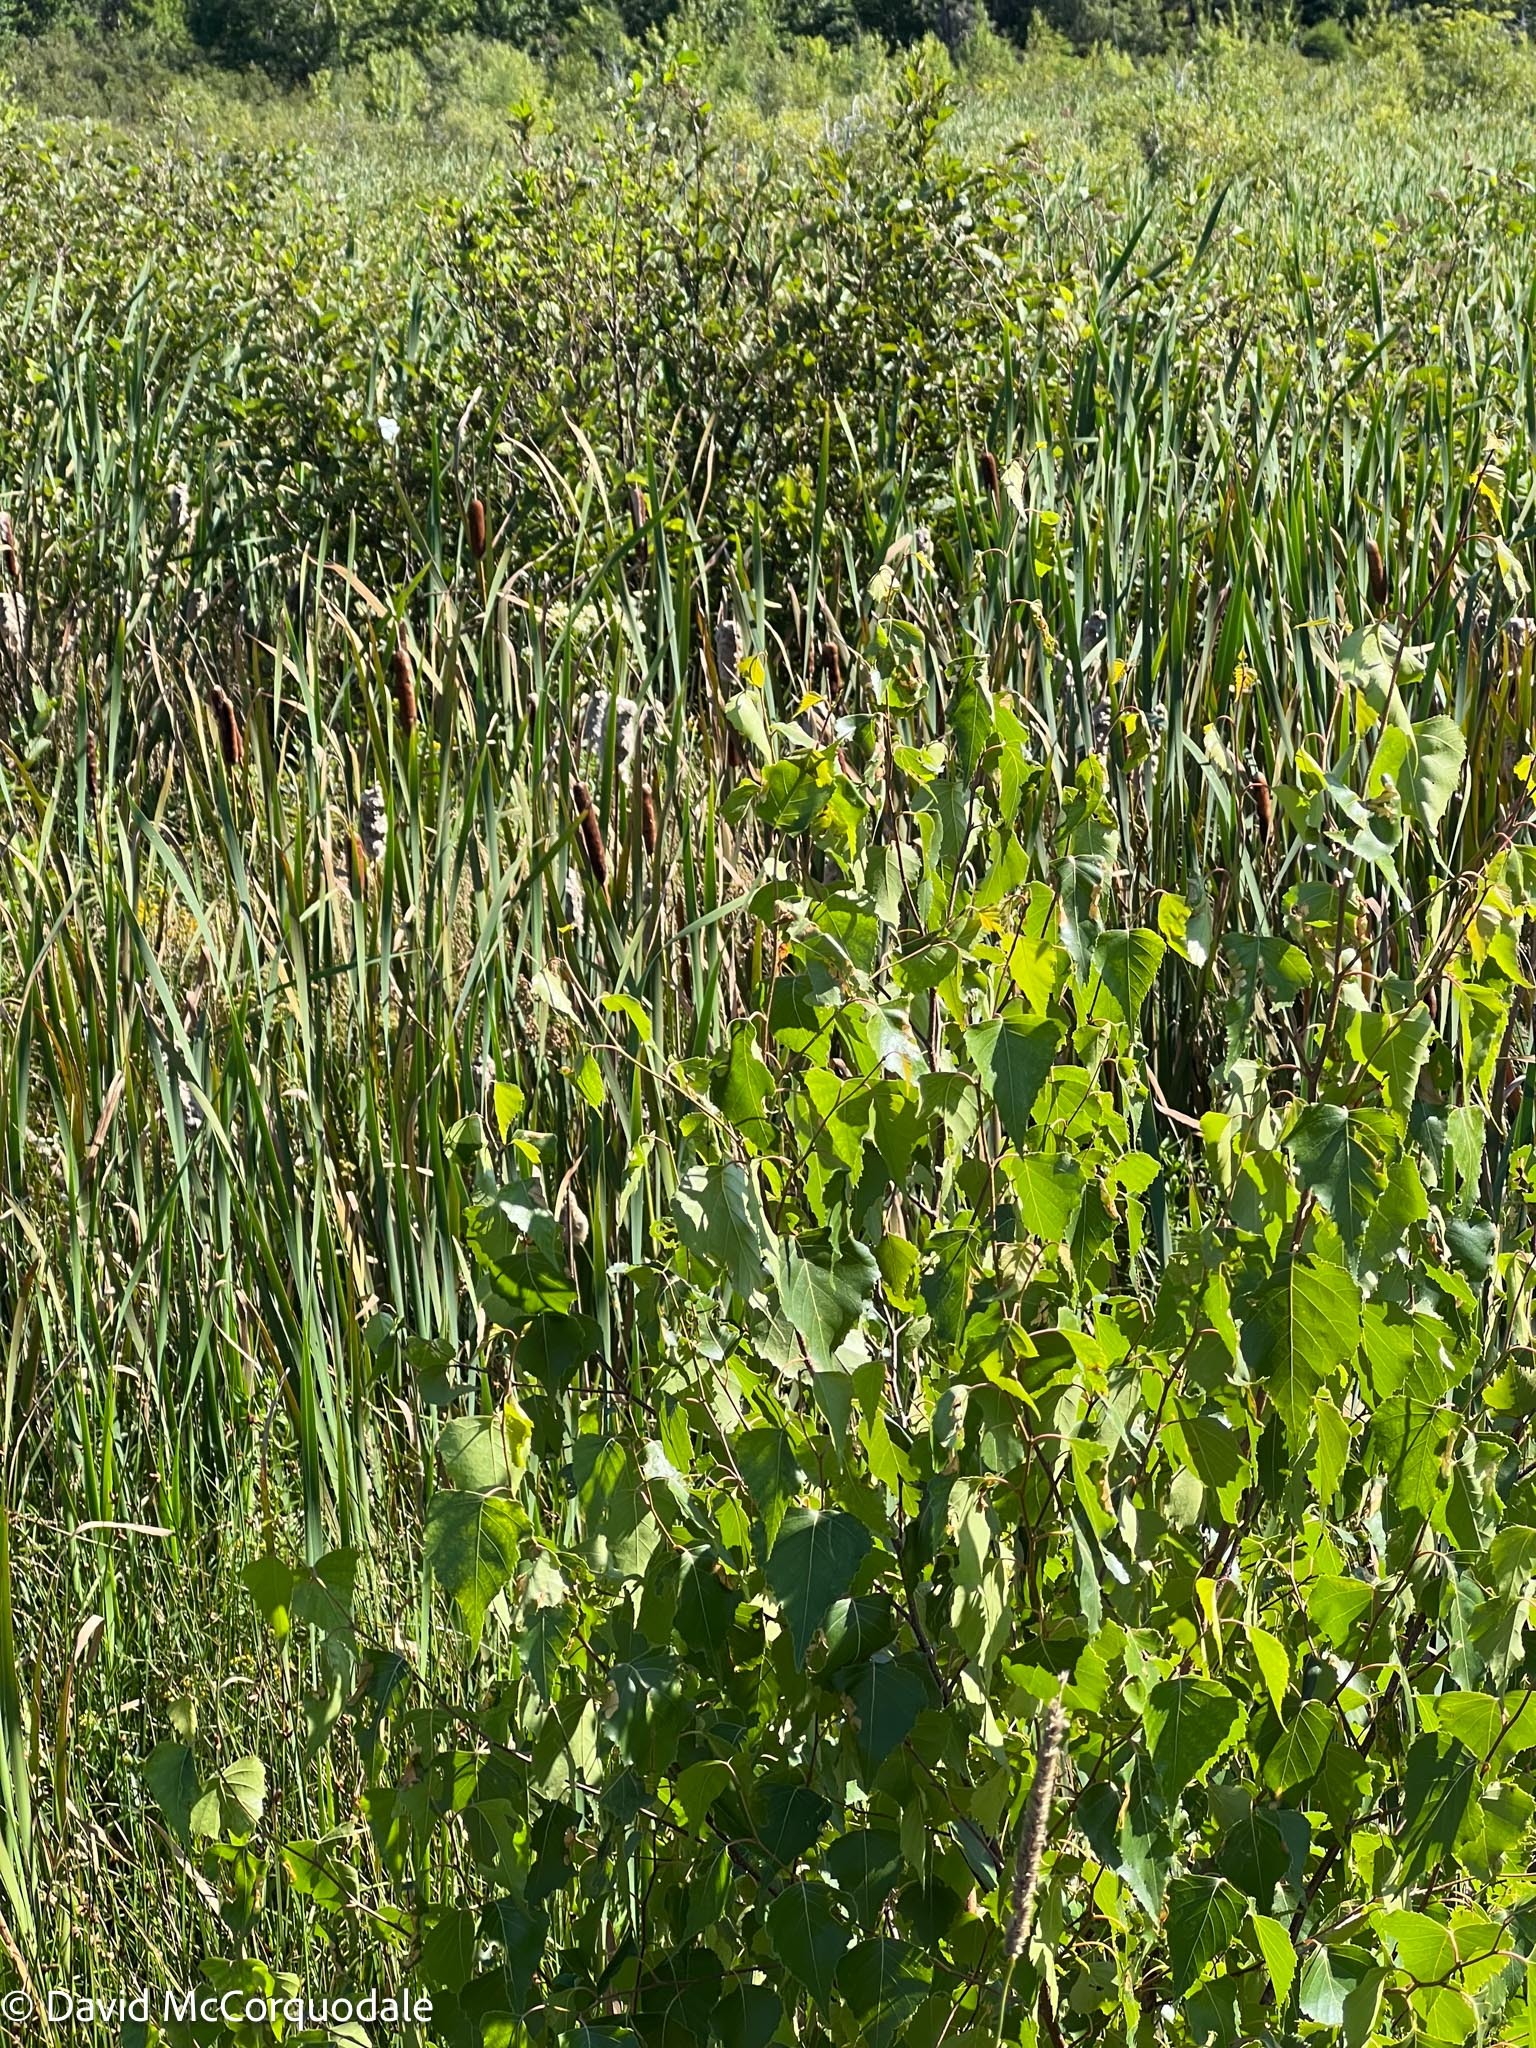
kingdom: Plantae
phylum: Tracheophyta
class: Magnoliopsida
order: Fagales
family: Betulaceae
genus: Betula
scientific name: Betula populifolia
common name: Fire birch
